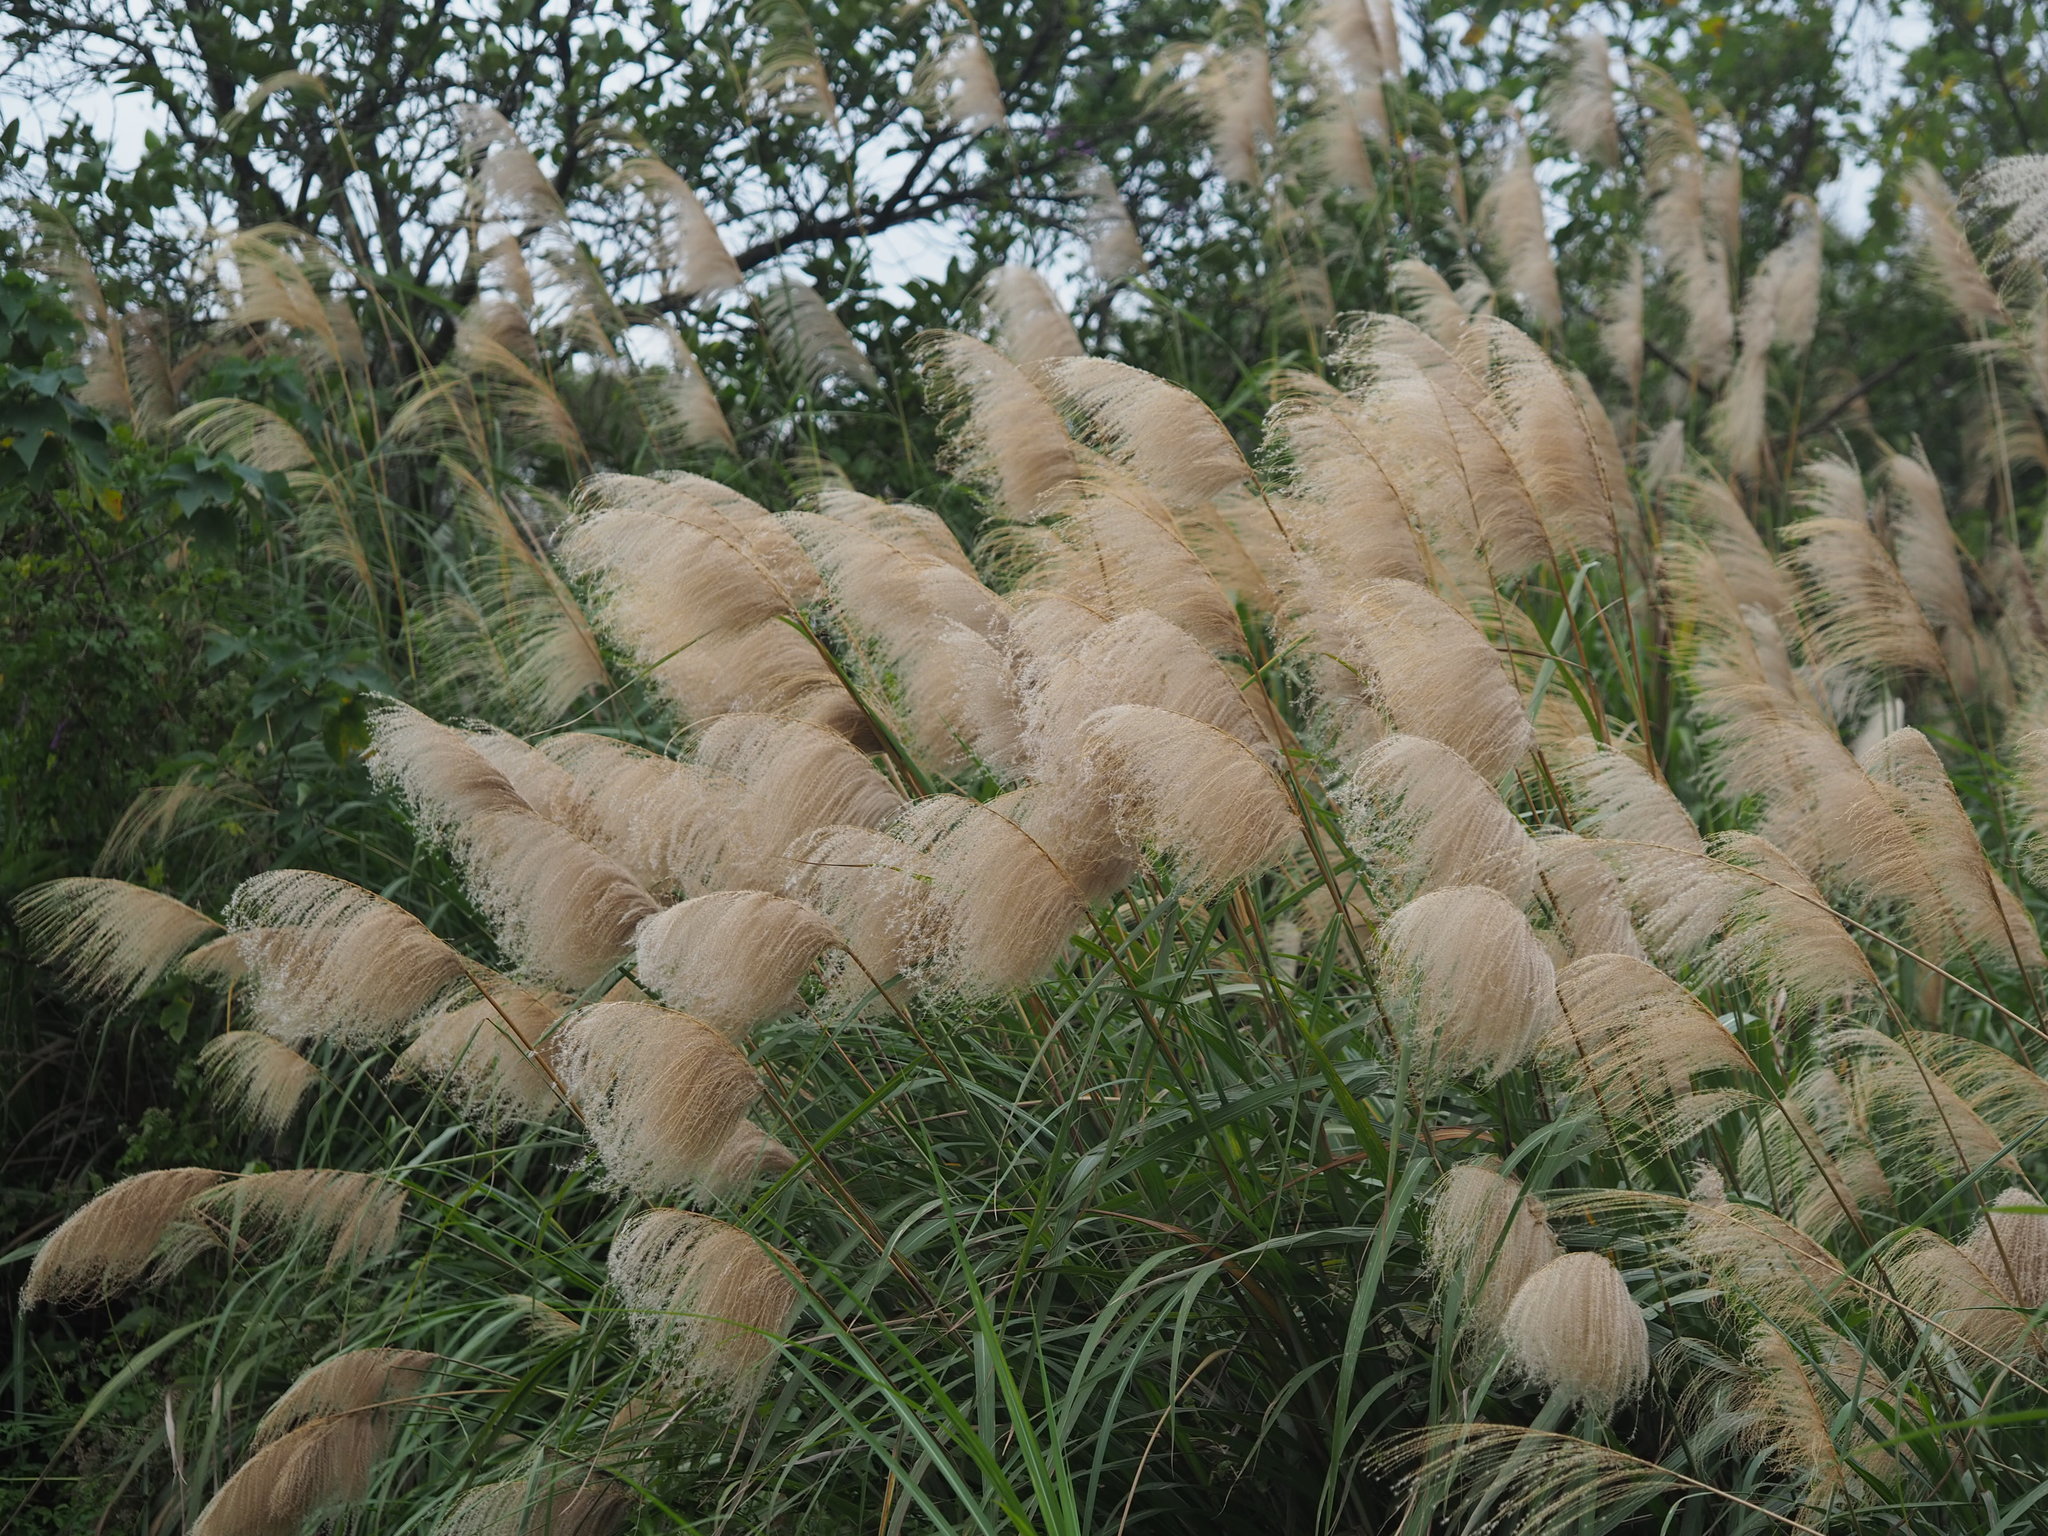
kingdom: Plantae
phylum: Tracheophyta
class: Liliopsida
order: Poales
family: Poaceae
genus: Miscanthus
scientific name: Miscanthus sinensis
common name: Chinese silvergrass
